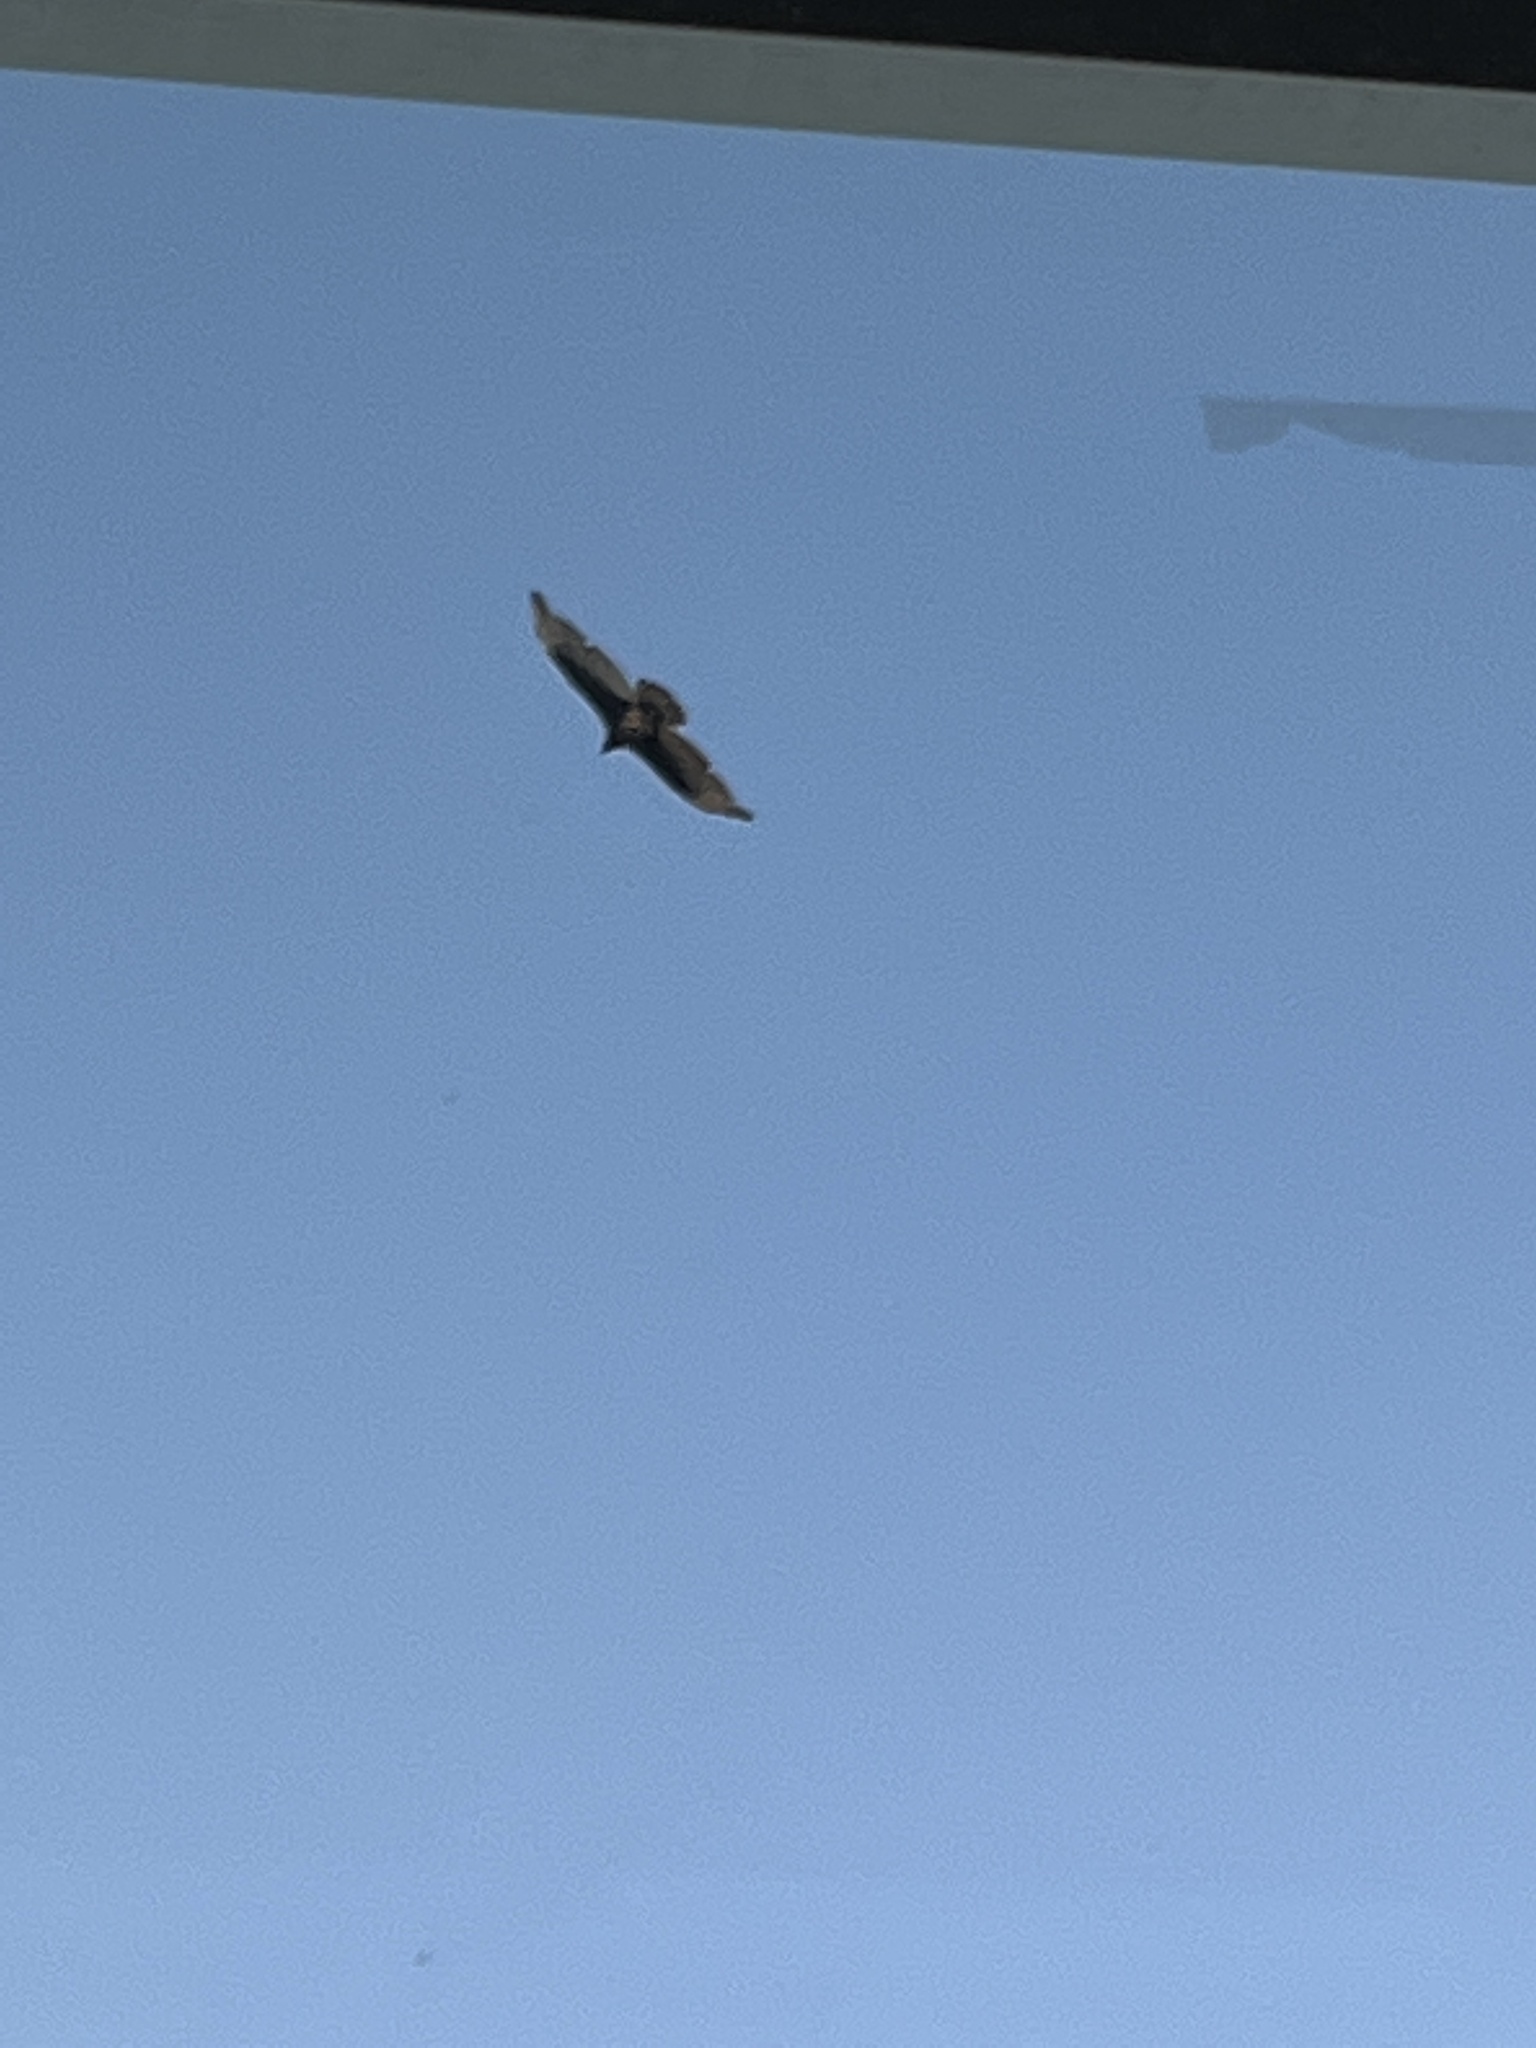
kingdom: Animalia
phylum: Chordata
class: Aves
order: Accipitriformes
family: Cathartidae
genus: Cathartes
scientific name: Cathartes aura
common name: Turkey vulture
